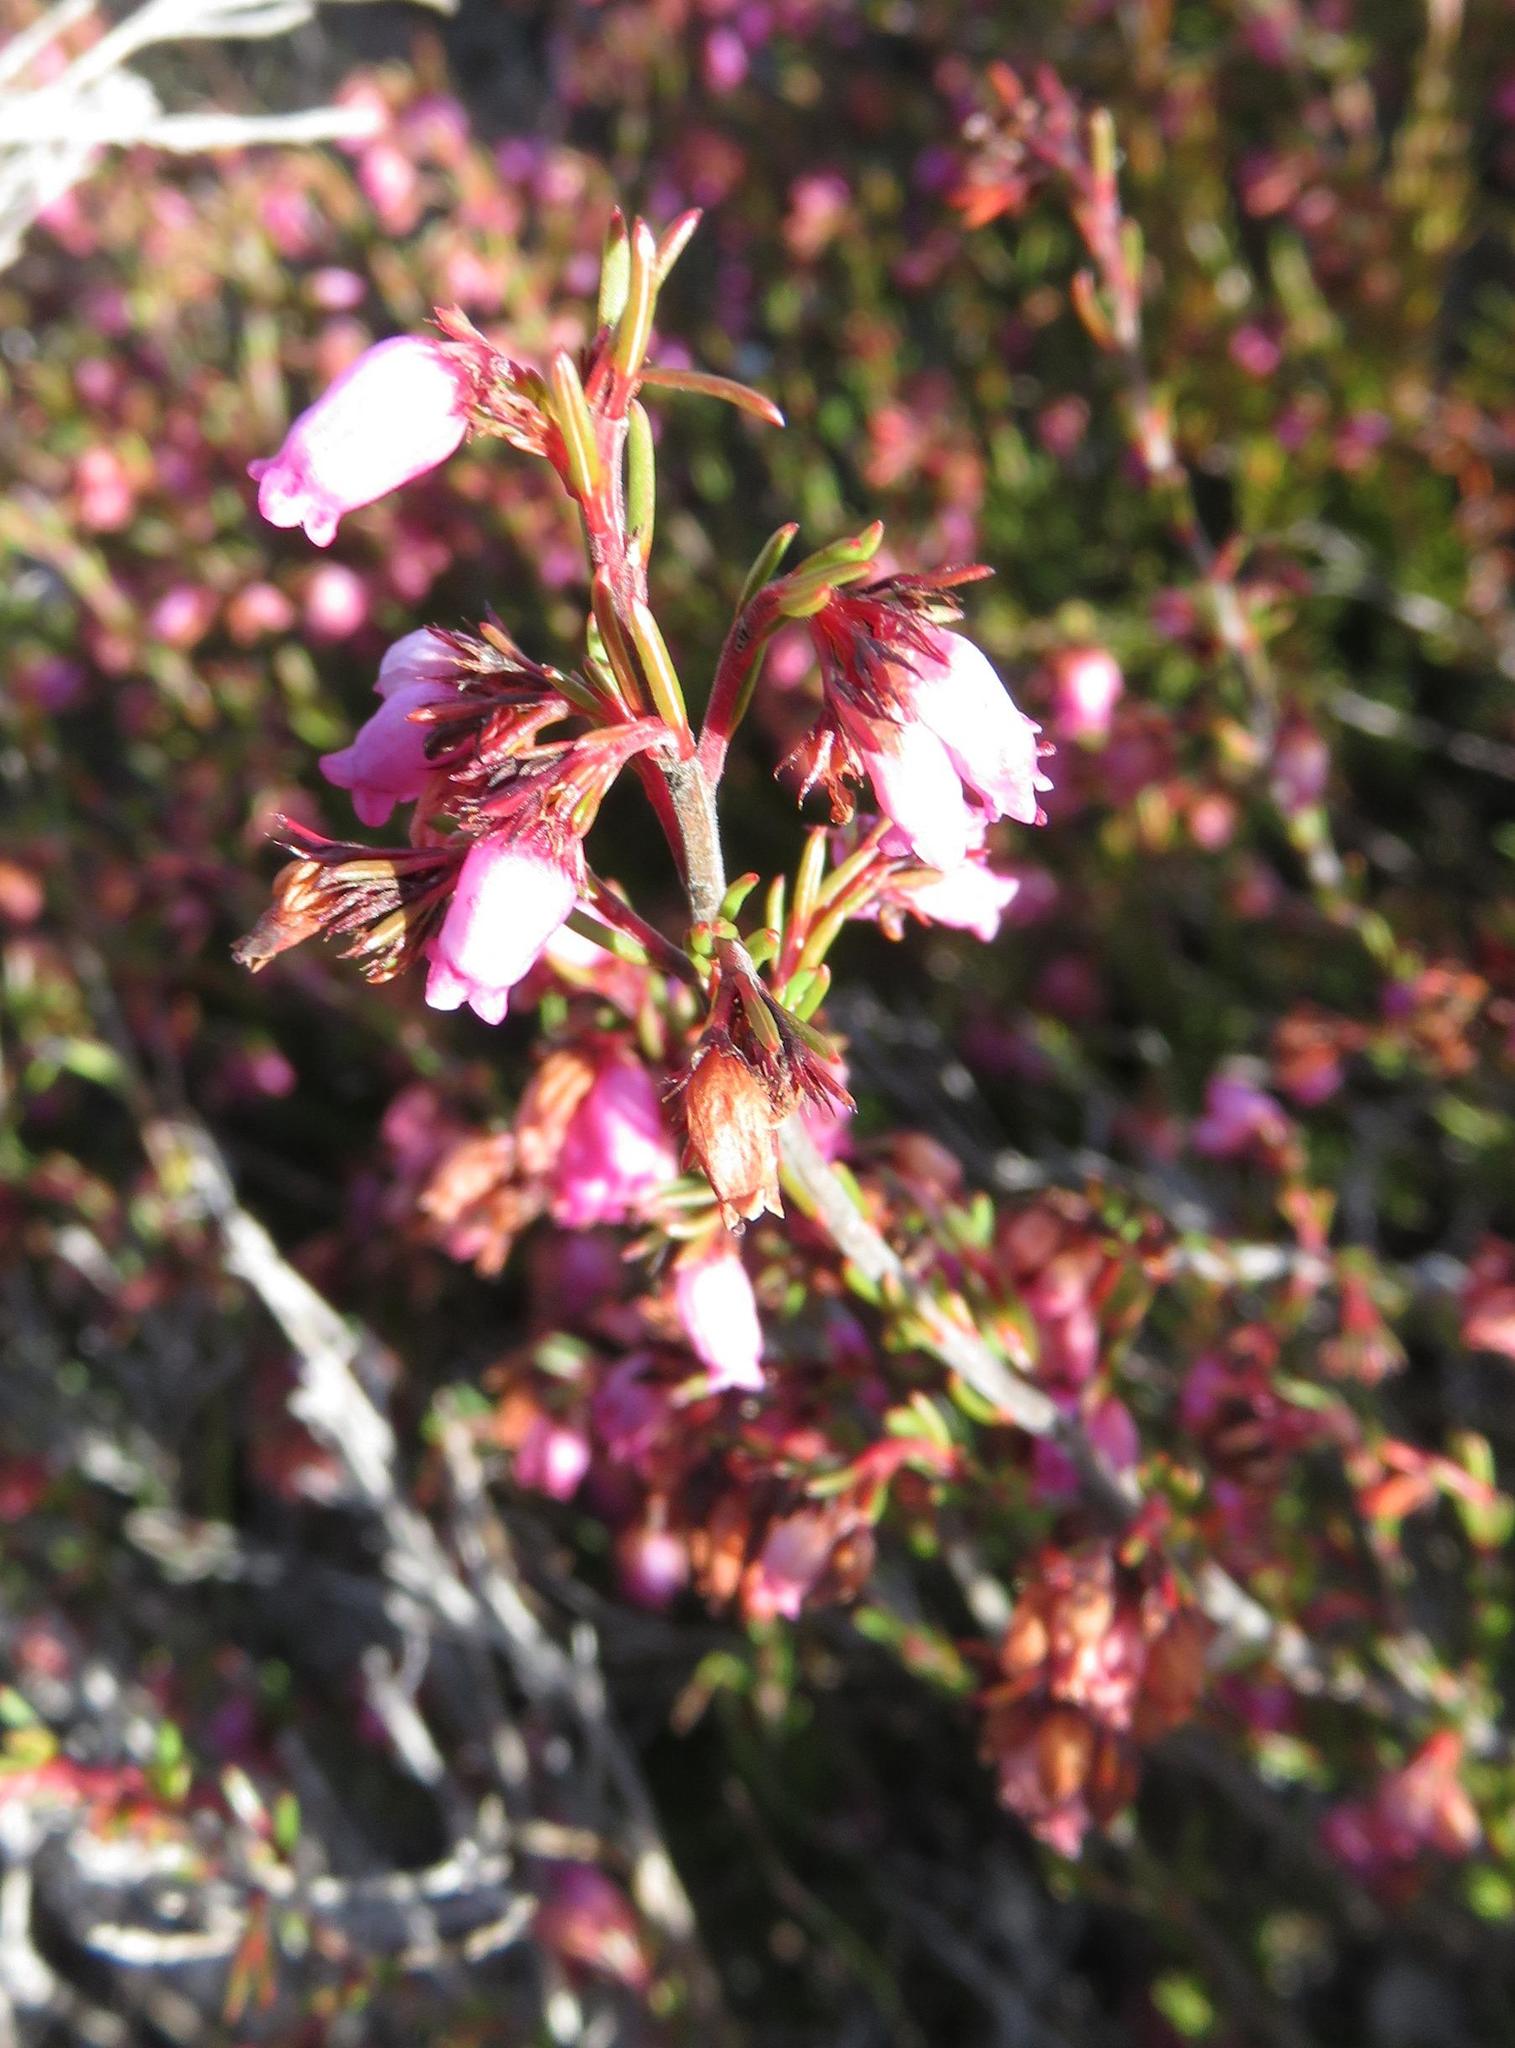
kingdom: Plantae
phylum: Tracheophyta
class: Magnoliopsida
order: Ericales
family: Ericaceae
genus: Erica
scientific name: Erica orculiflora
